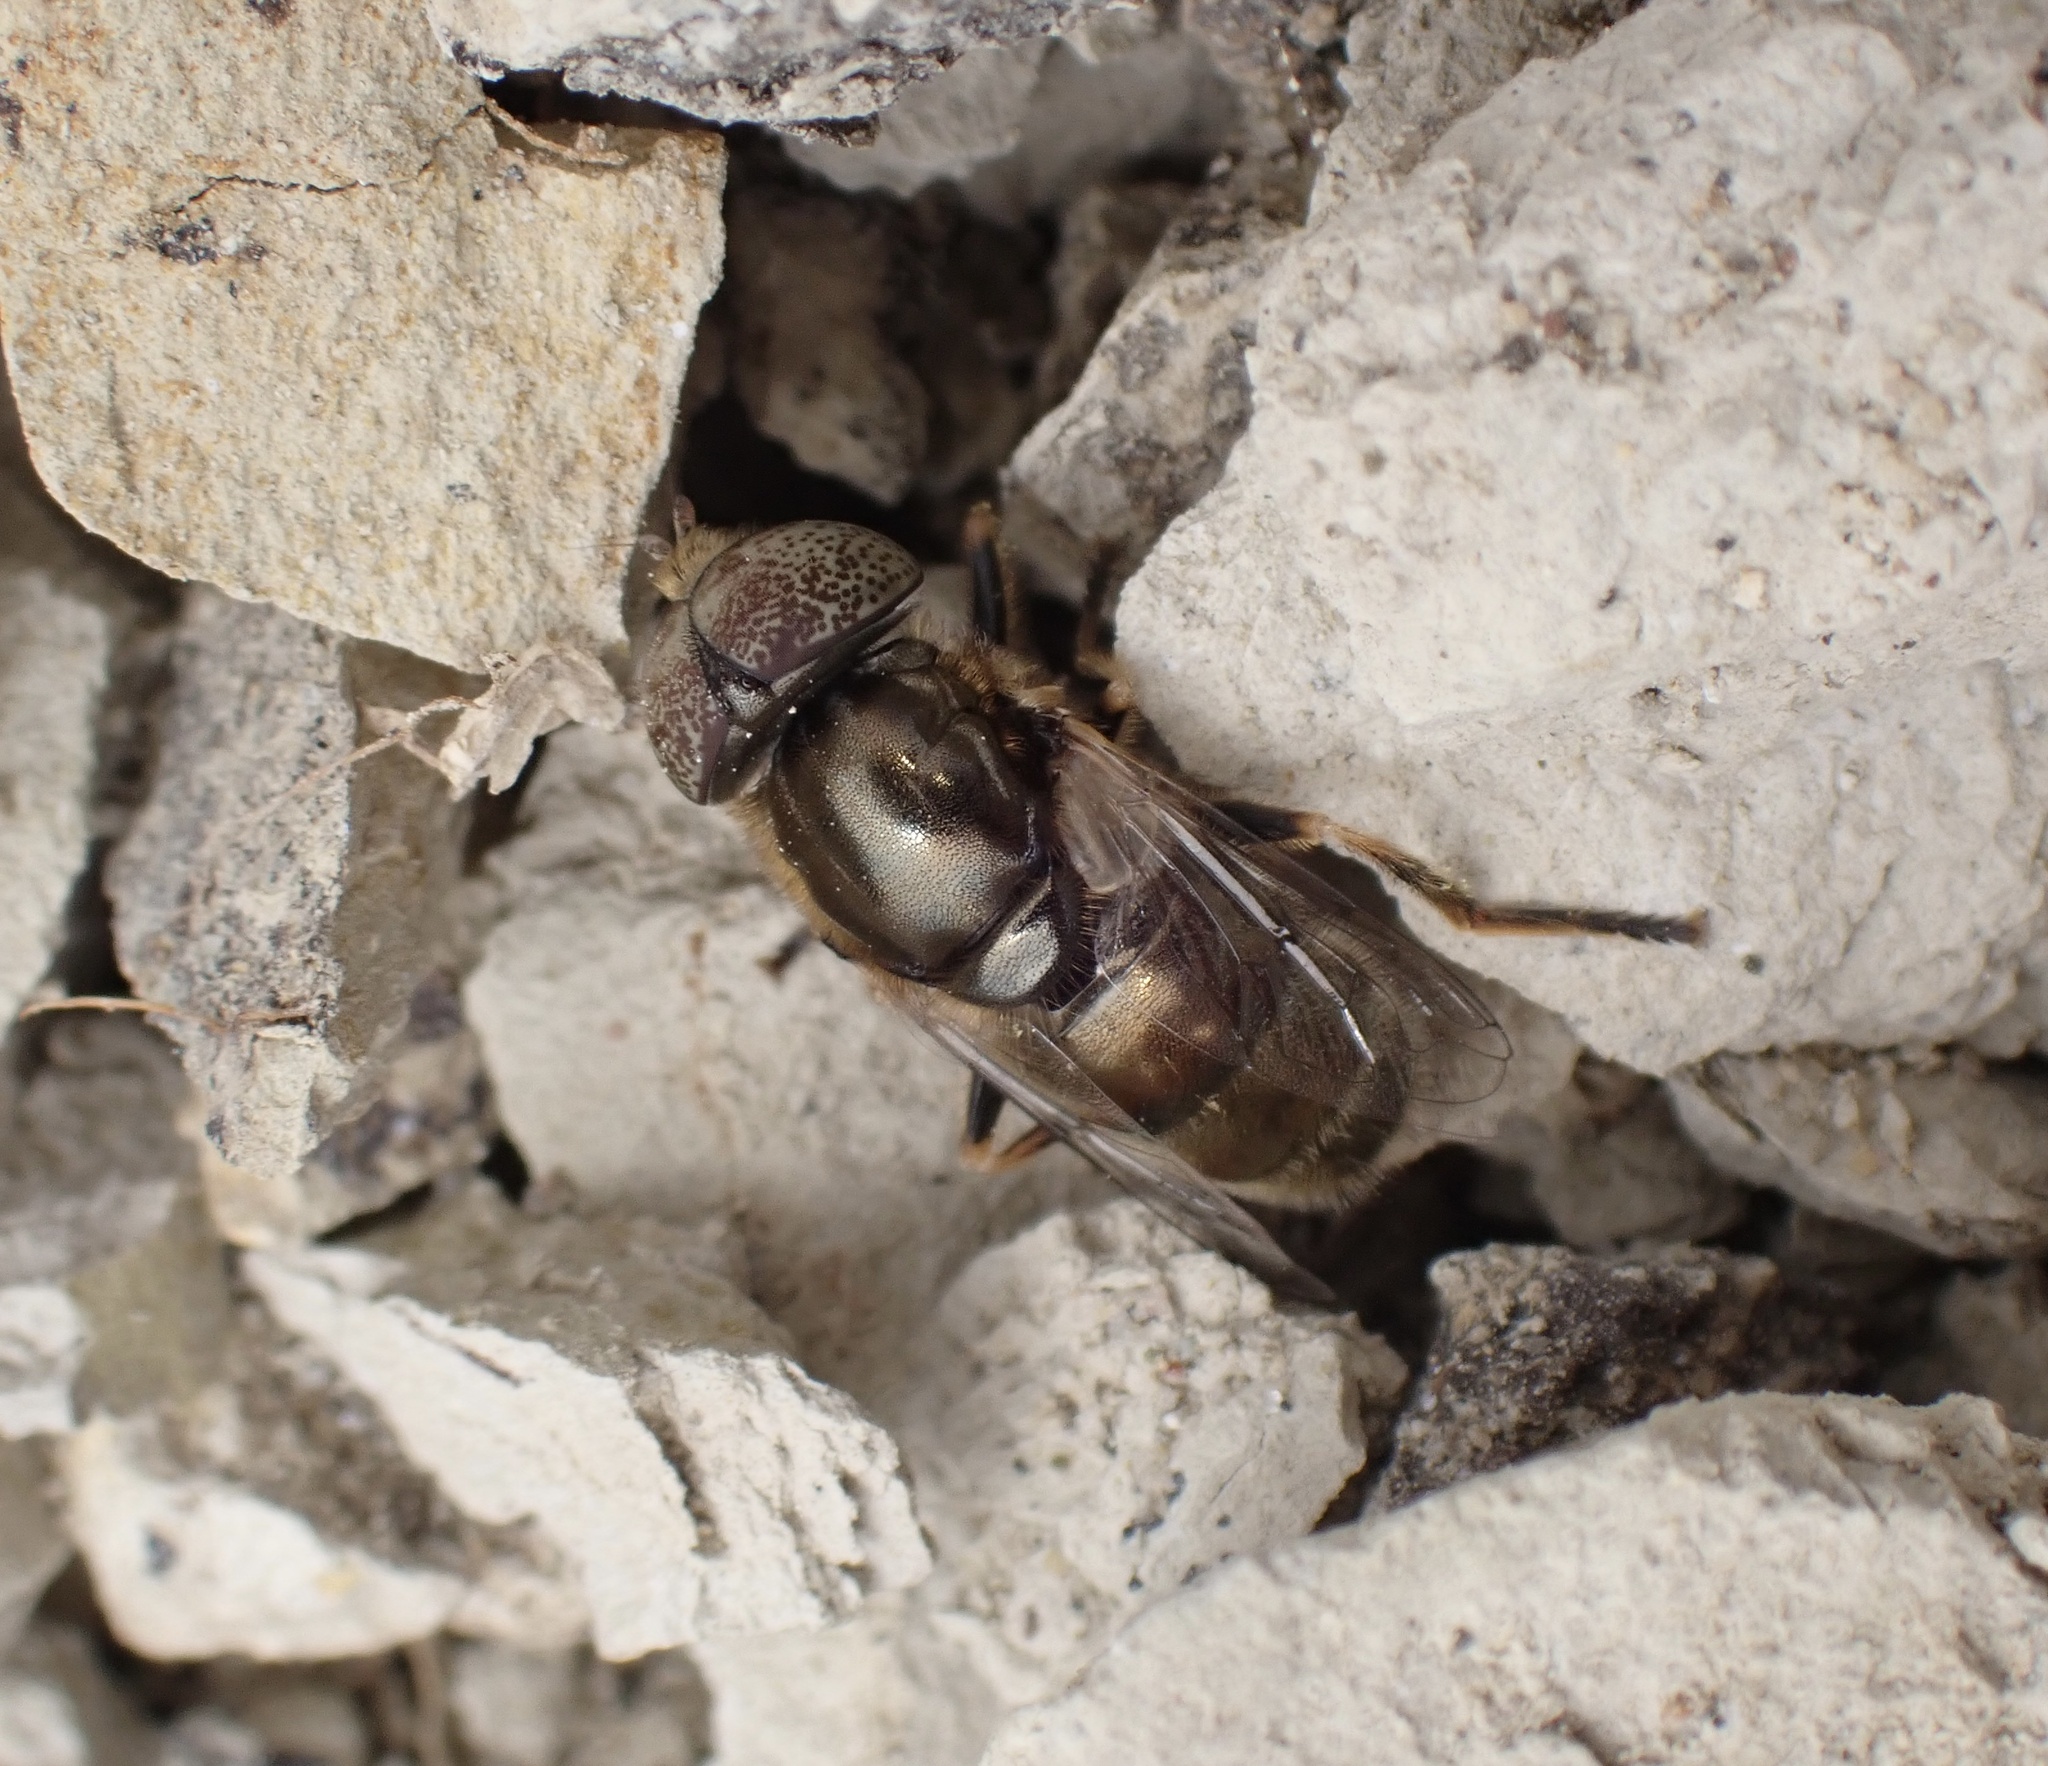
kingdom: Animalia
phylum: Arthropoda
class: Insecta
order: Diptera
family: Syrphidae
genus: Eristalinus
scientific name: Eristalinus aeneus
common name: Syrphid fly
